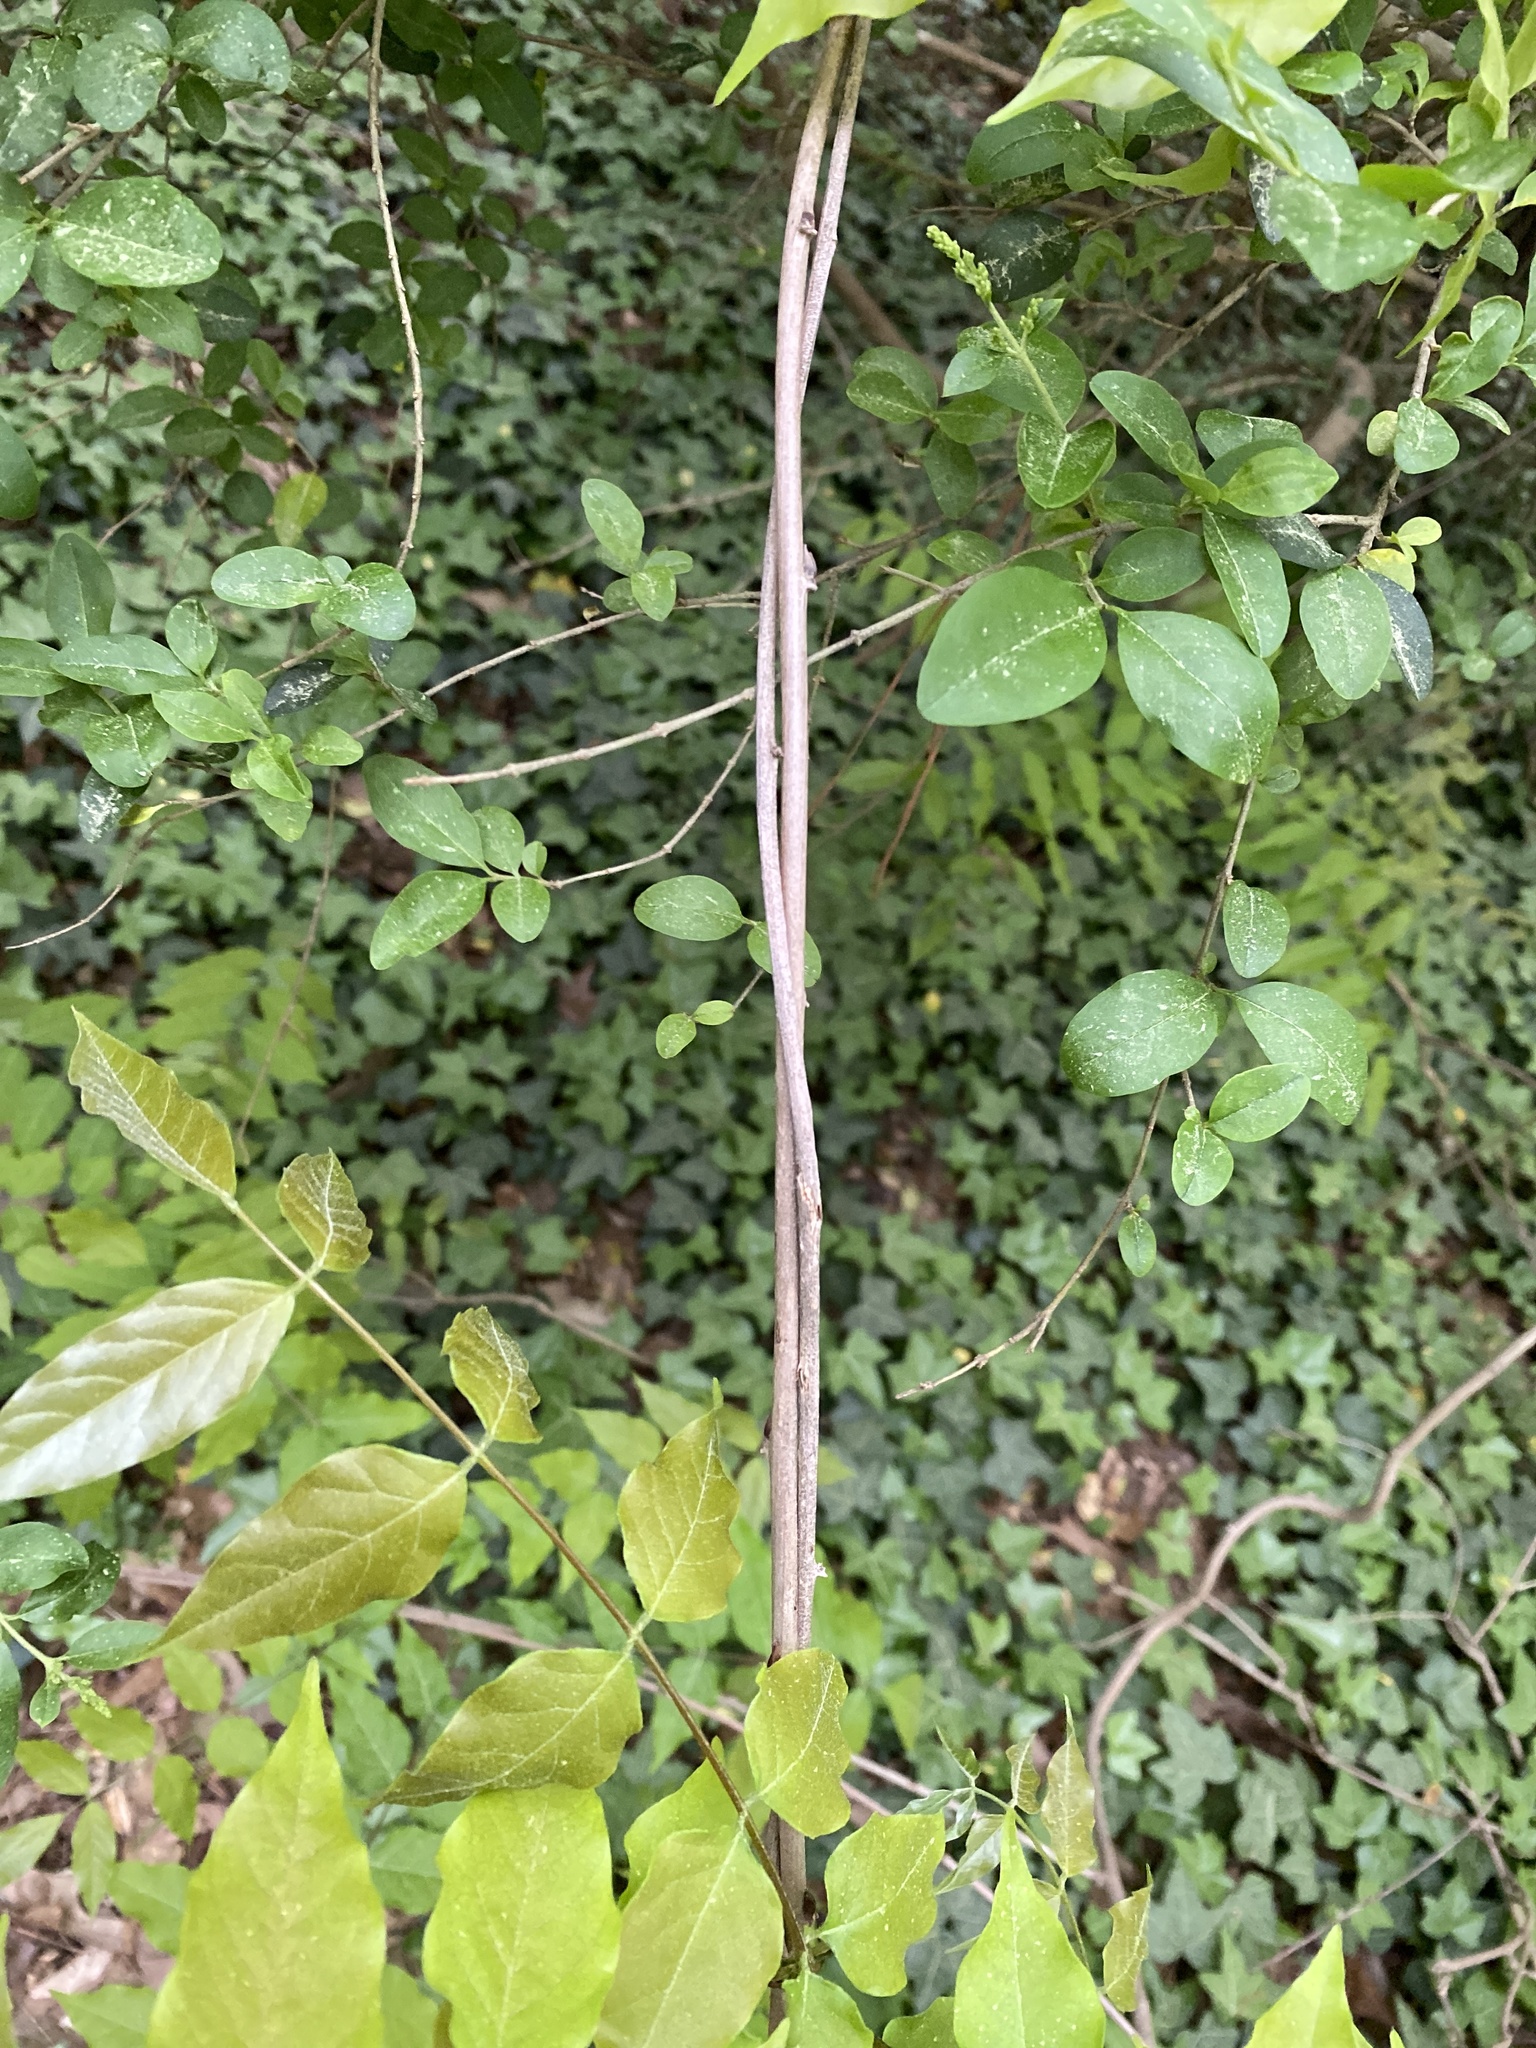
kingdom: Plantae
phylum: Tracheophyta
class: Magnoliopsida
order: Fabales
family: Fabaceae
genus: Wisteria
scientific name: Wisteria floribunda
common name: Japanese wisteria
